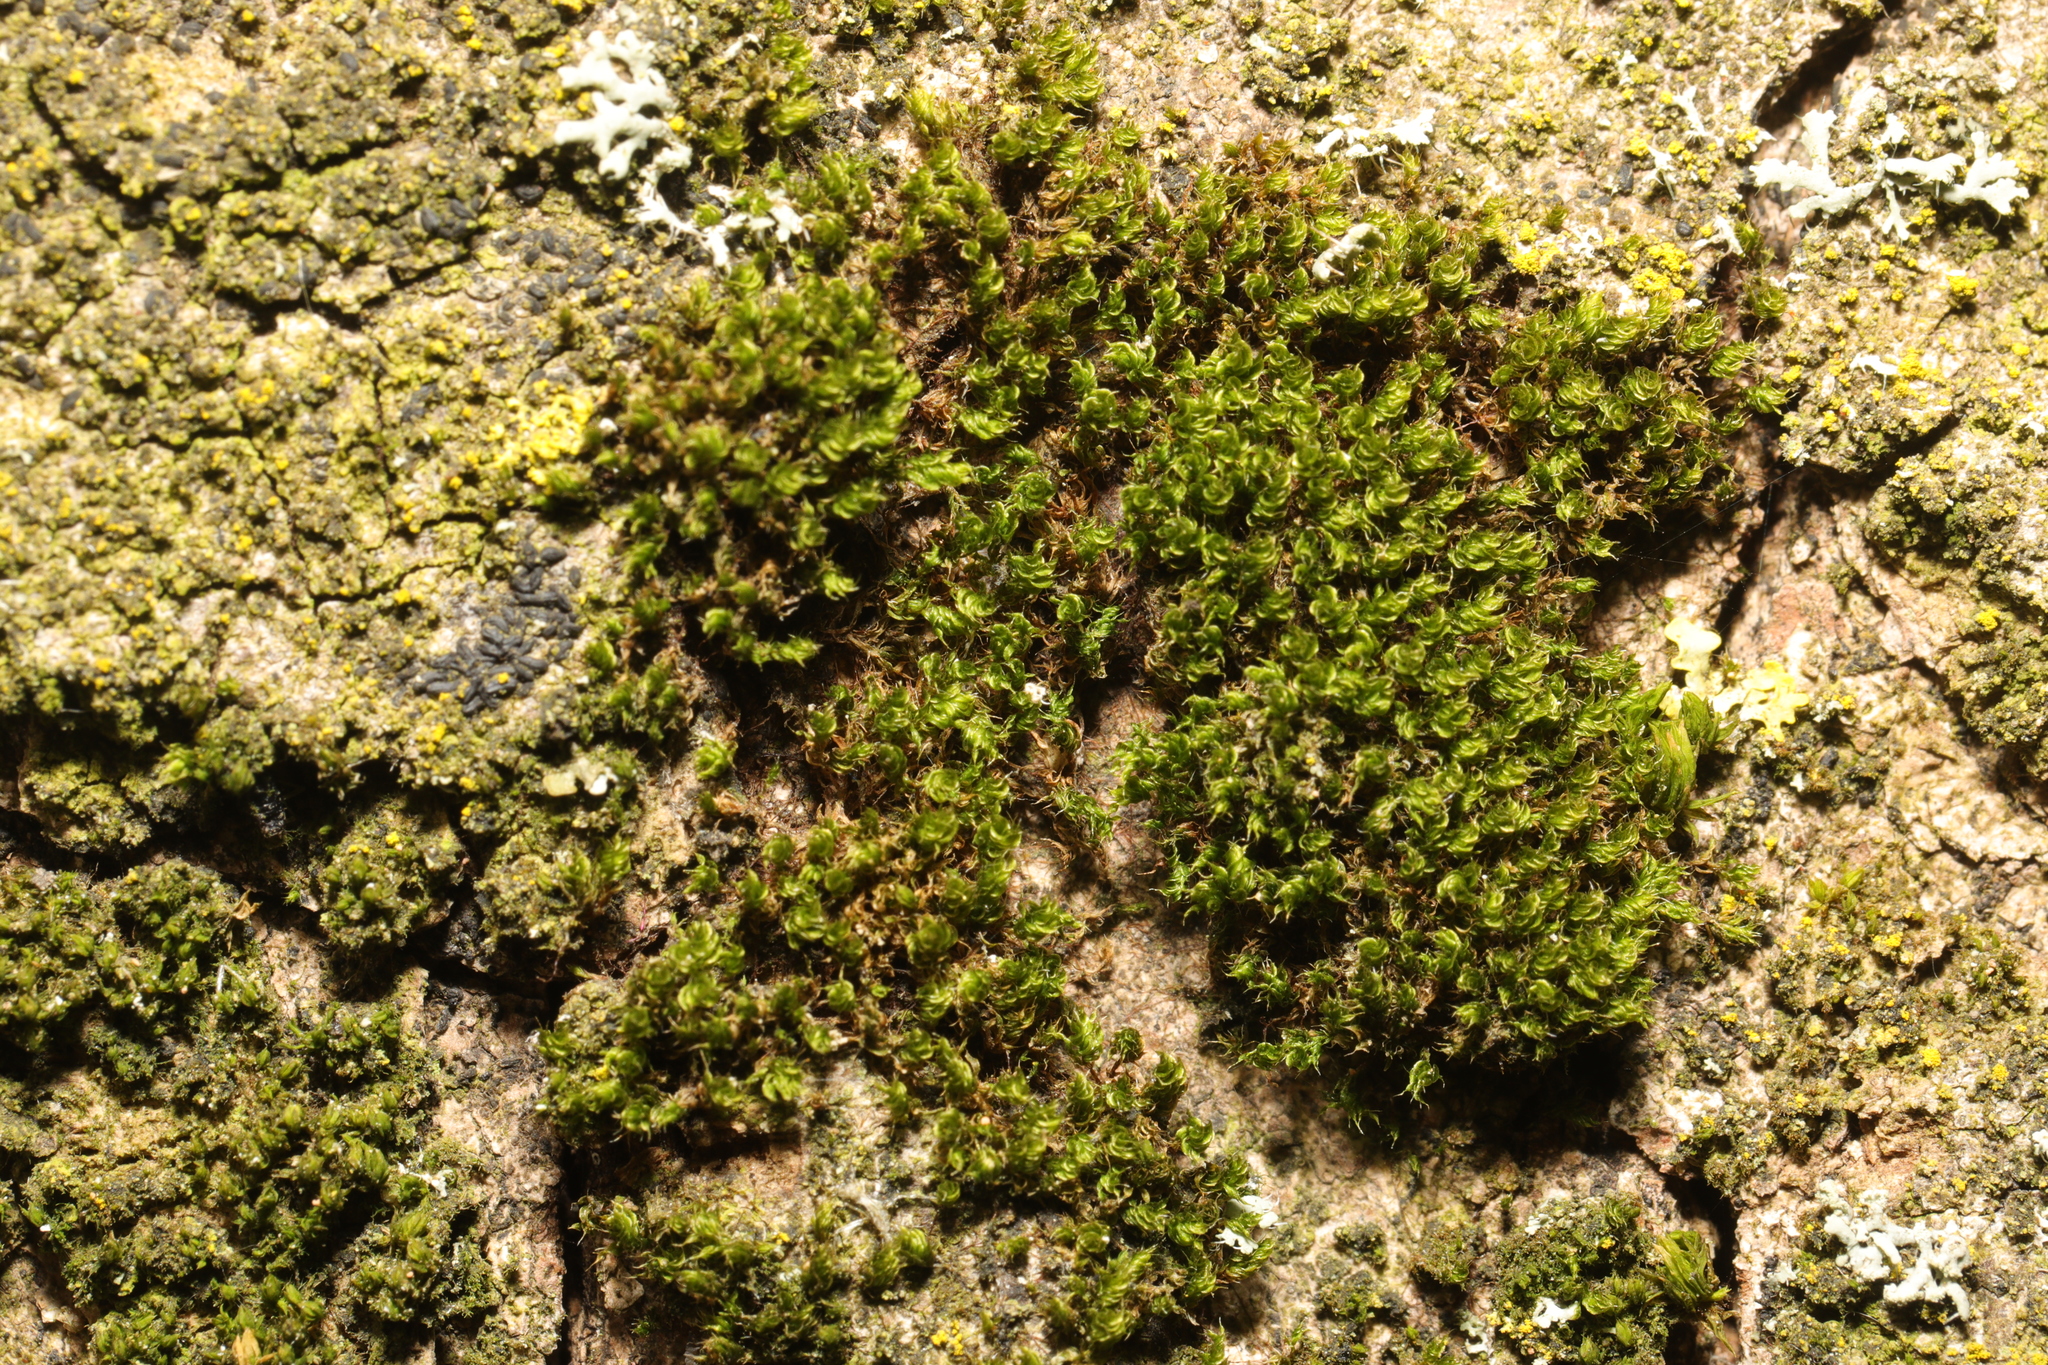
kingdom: Plantae
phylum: Bryophyta
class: Bryopsida
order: Bryales
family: Bryaceae
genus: Rosulabryum
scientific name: Rosulabryum capillare
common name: Capillary thread-moss
